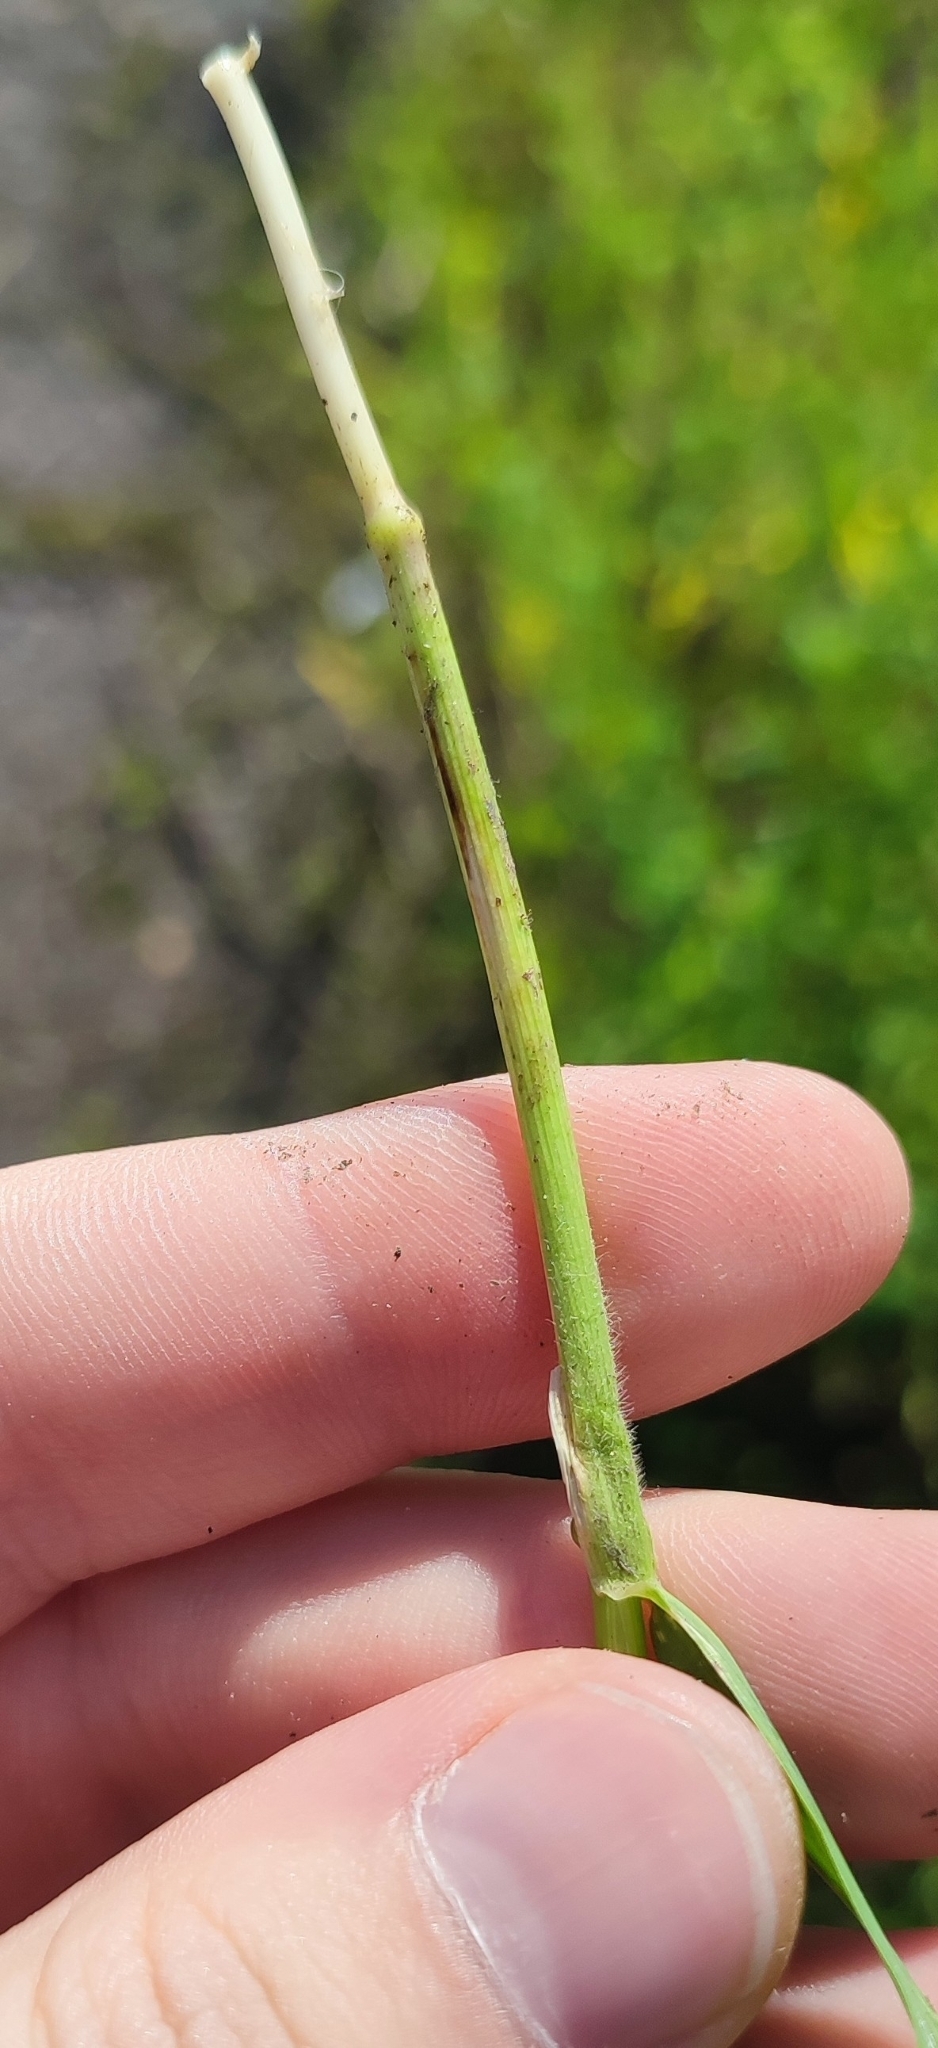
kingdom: Plantae
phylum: Tracheophyta
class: Liliopsida
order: Poales
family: Poaceae
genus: Elymus
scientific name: Elymus repens
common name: Quackgrass
